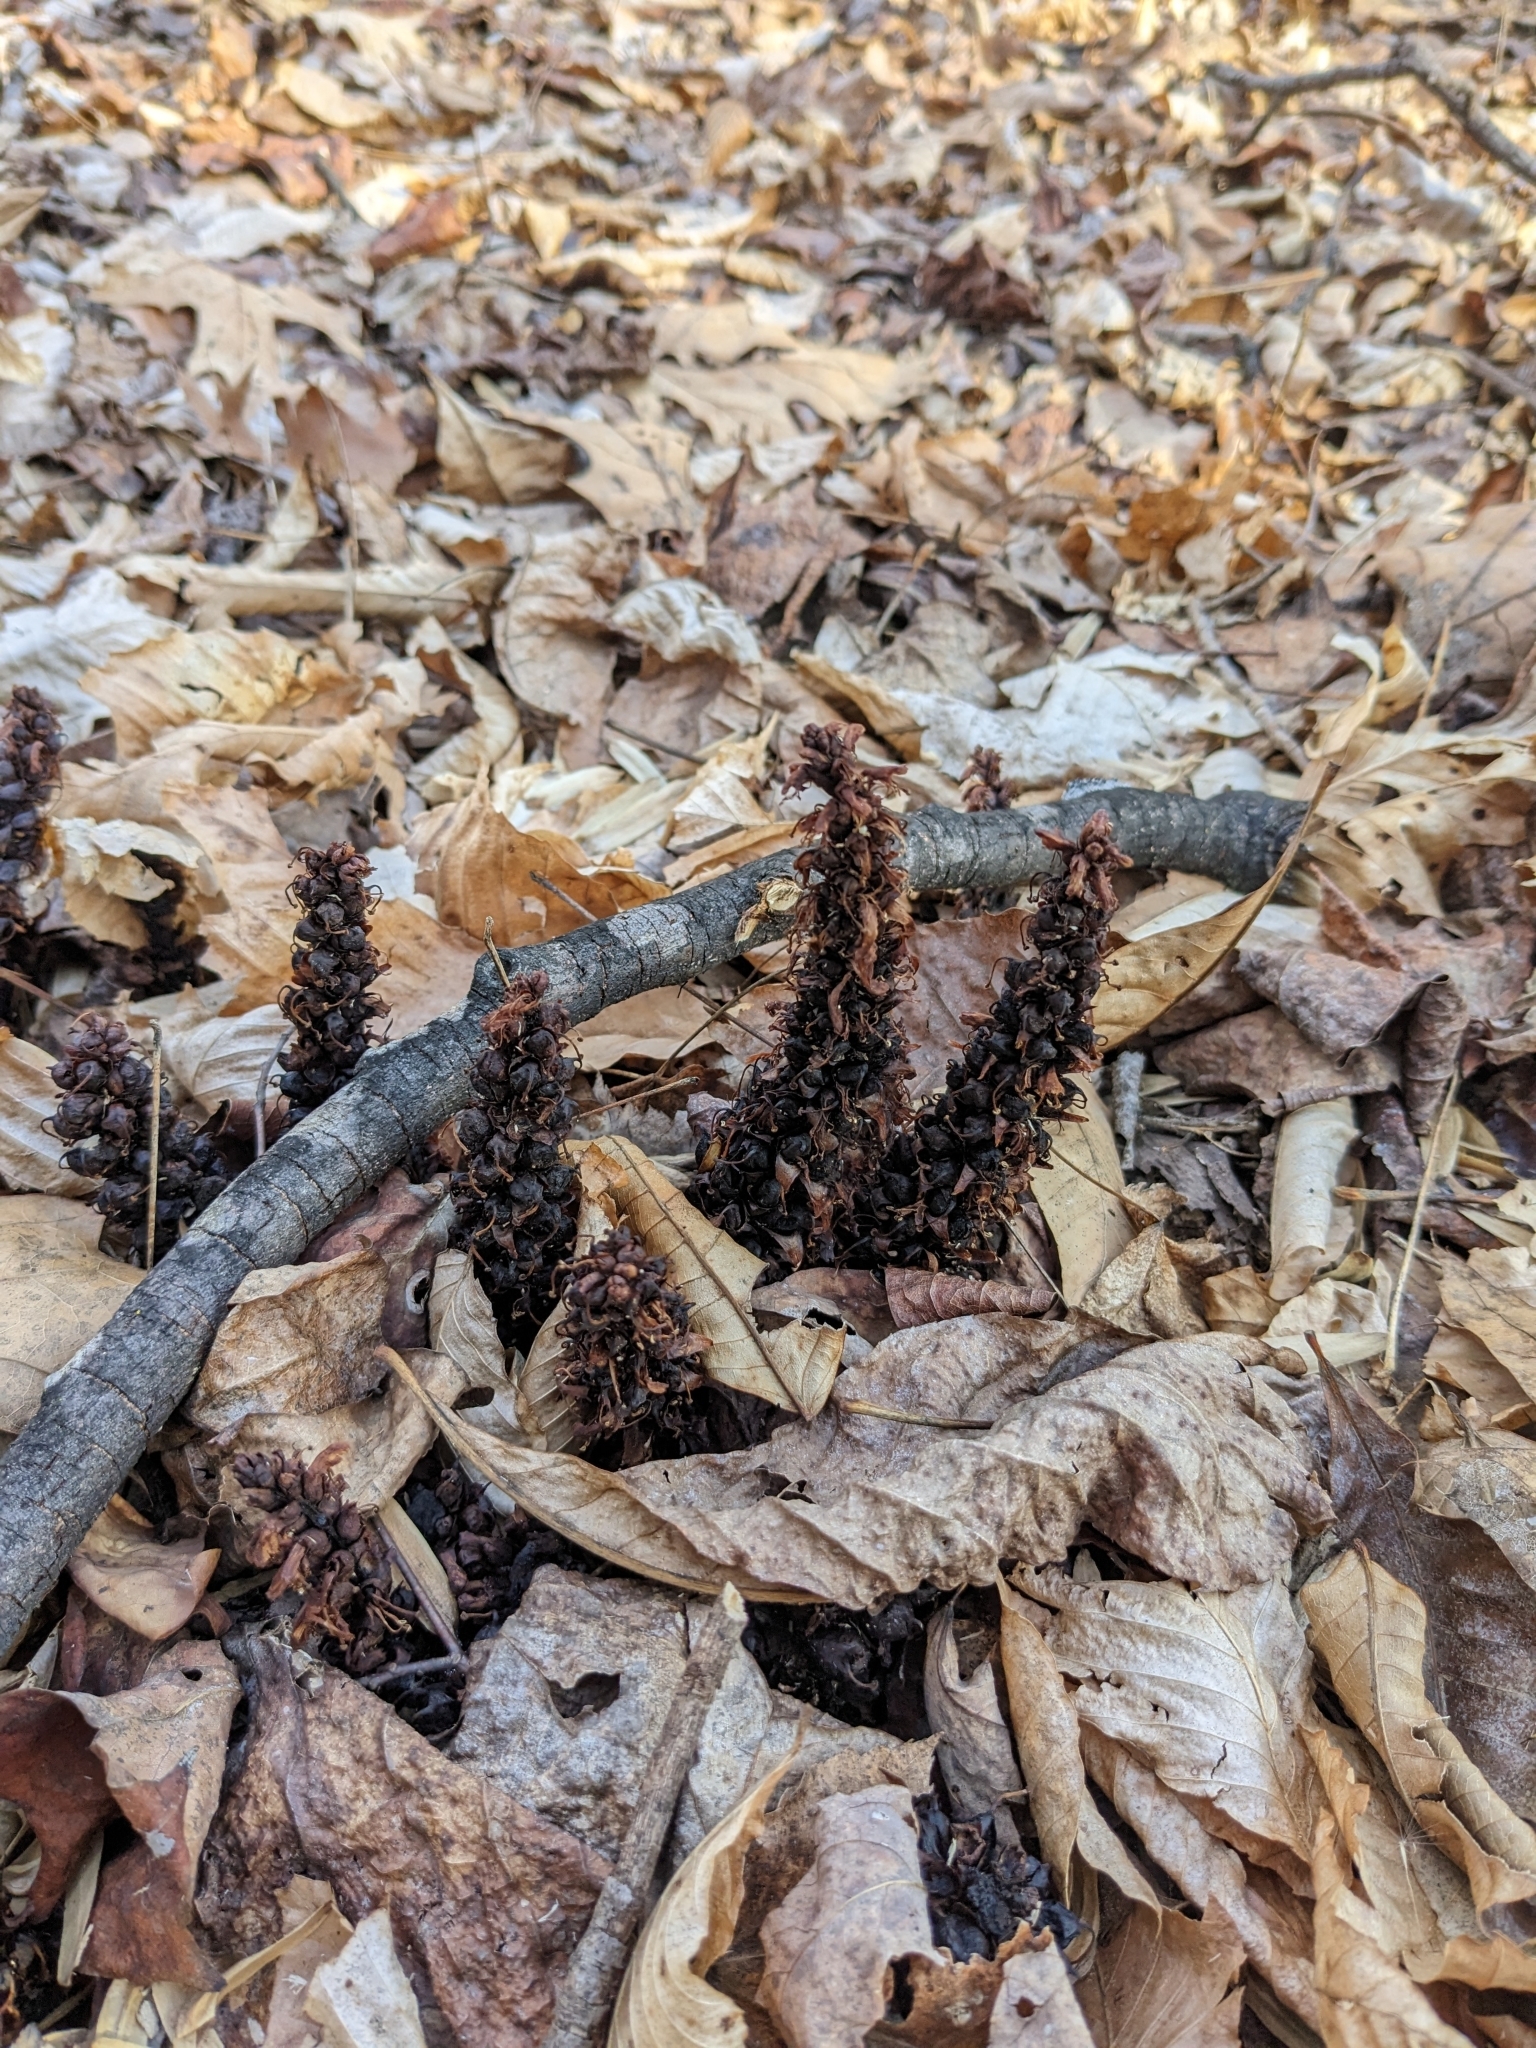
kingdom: Plantae
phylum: Tracheophyta
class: Magnoliopsida
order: Lamiales
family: Orobanchaceae
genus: Conopholis
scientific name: Conopholis americana
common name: American cancer-root
